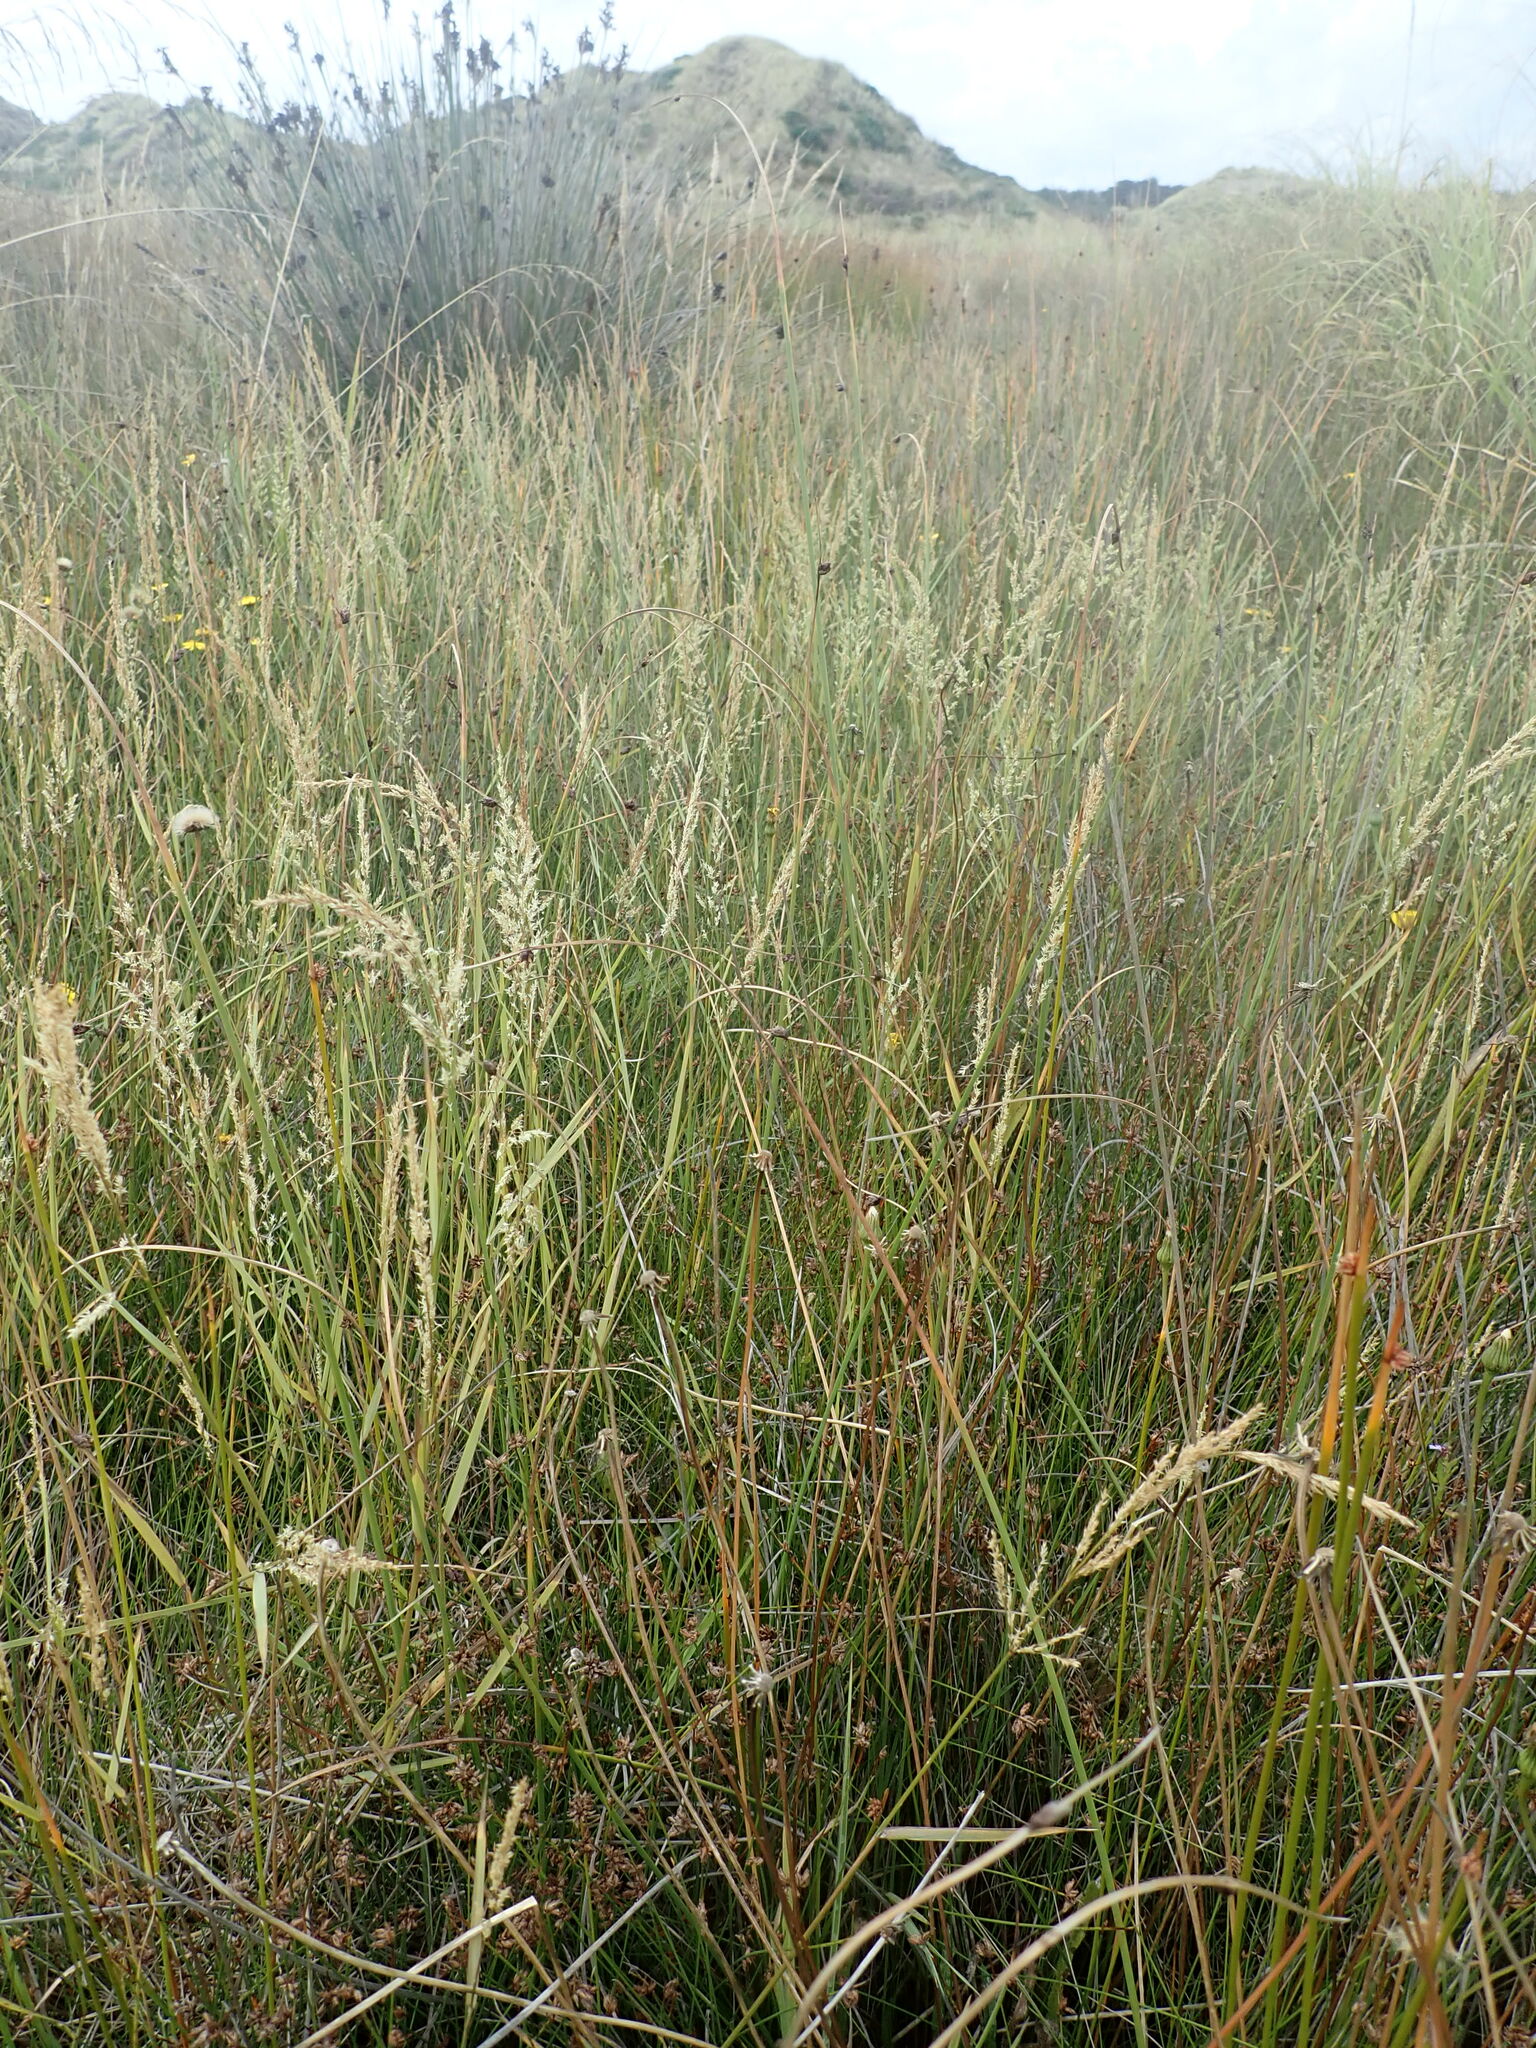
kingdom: Plantae
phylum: Tracheophyta
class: Liliopsida
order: Poales
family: Poaceae
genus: Agrostis
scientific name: Agrostis stolonifera
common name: Creeping bentgrass
